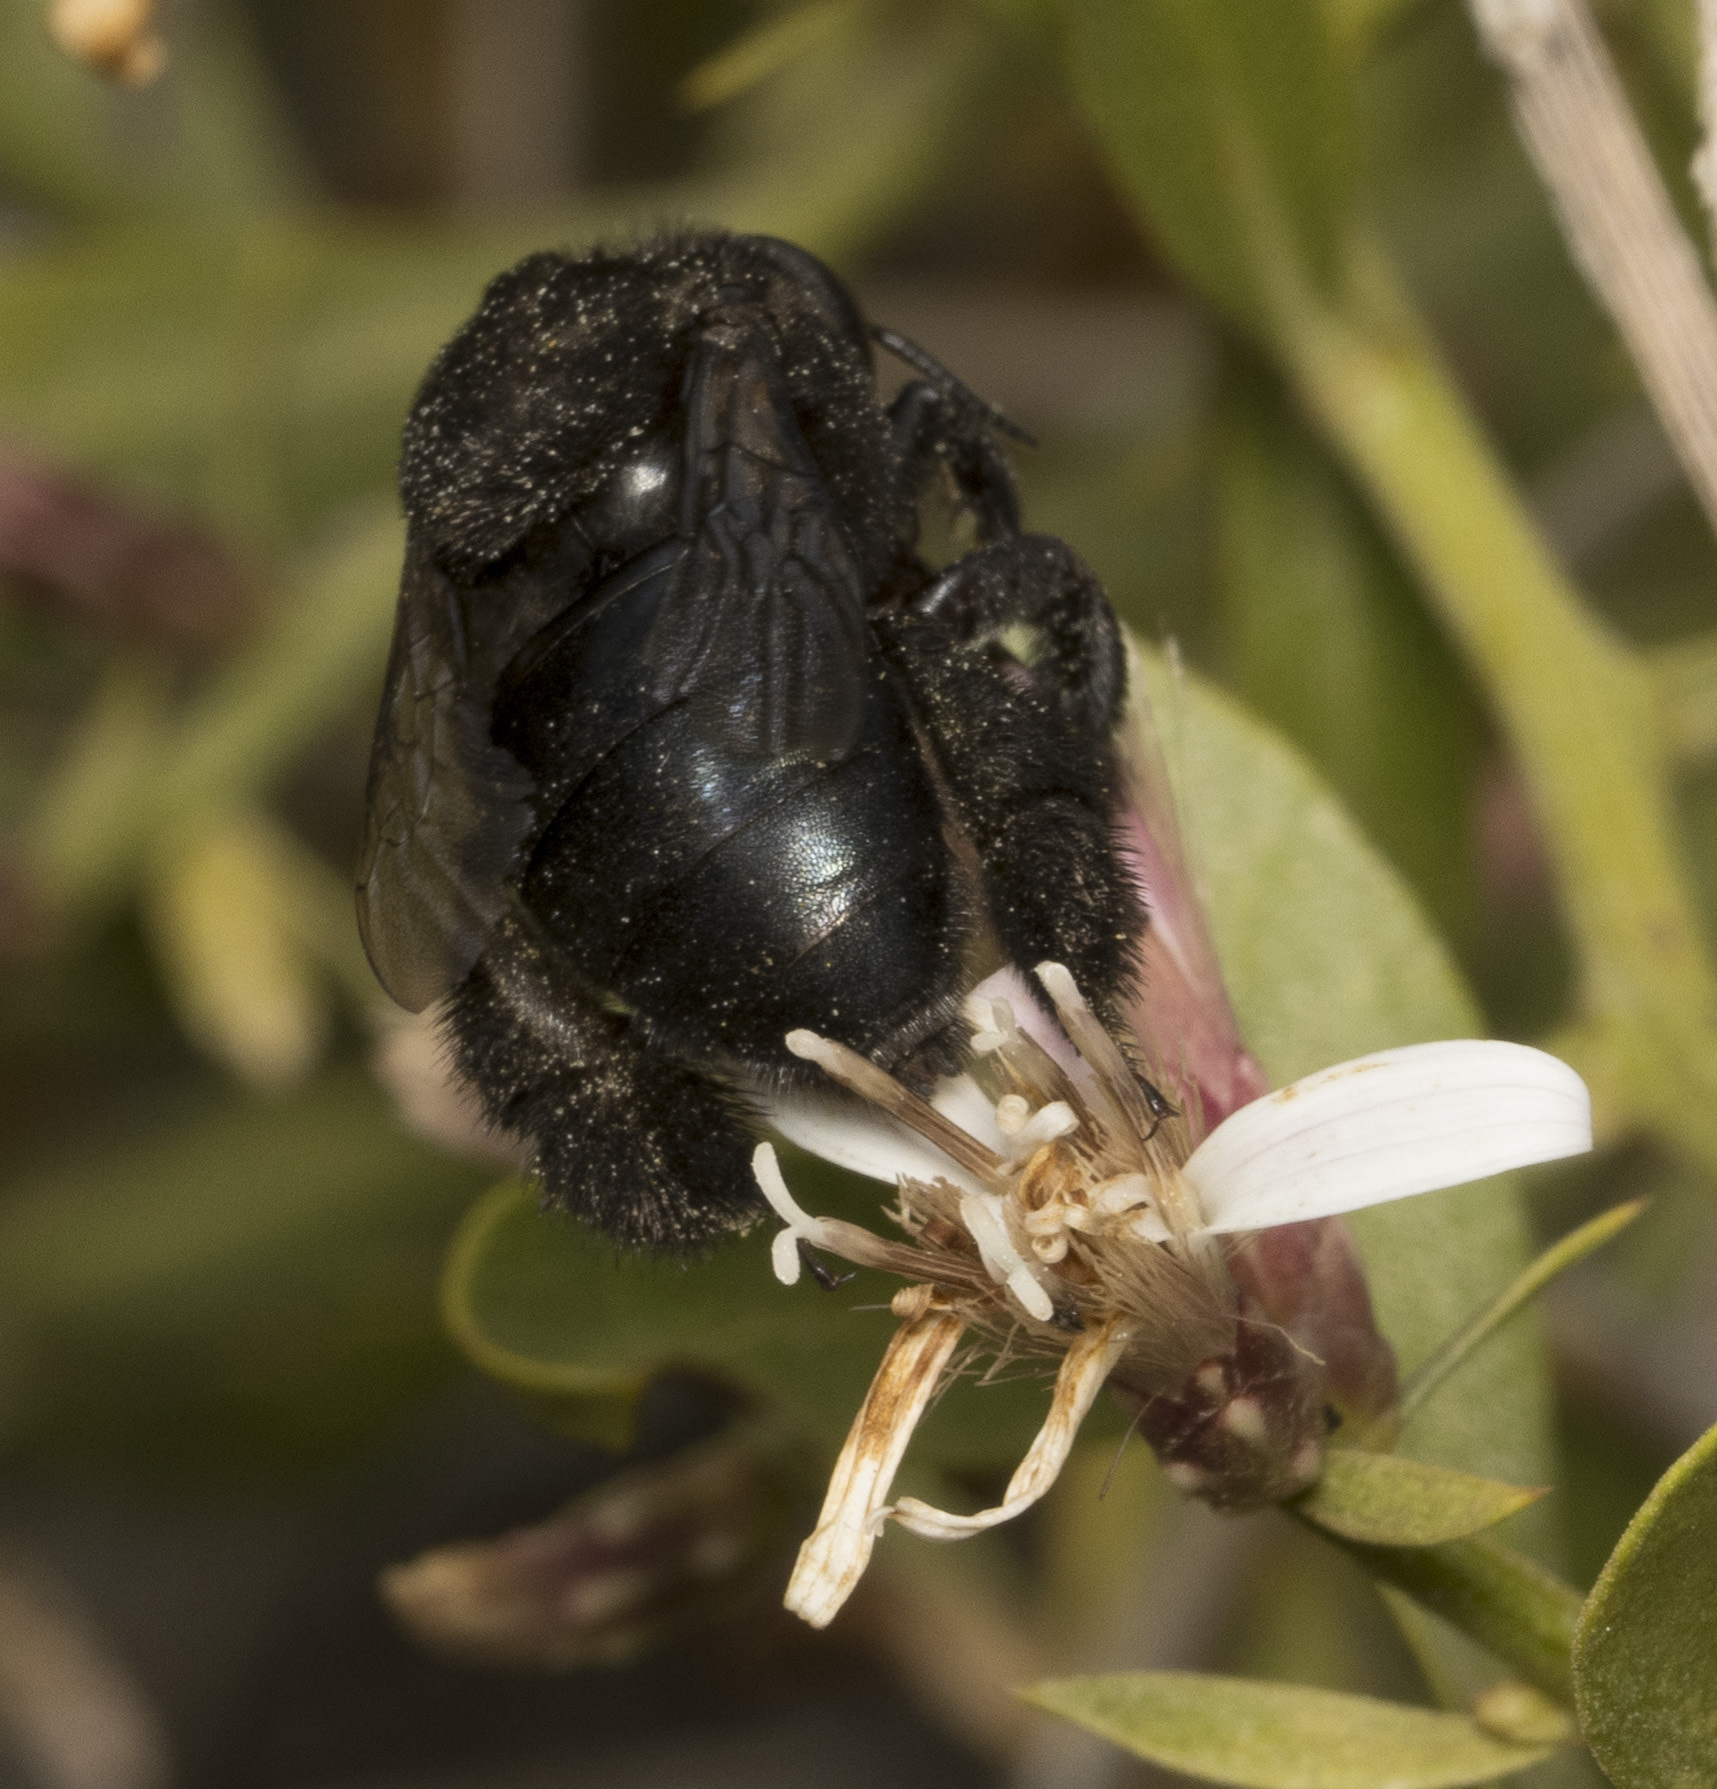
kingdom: Animalia
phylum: Arthropoda
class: Insecta
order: Hymenoptera
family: Apidae
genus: Centris
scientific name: Centris nigerrima
